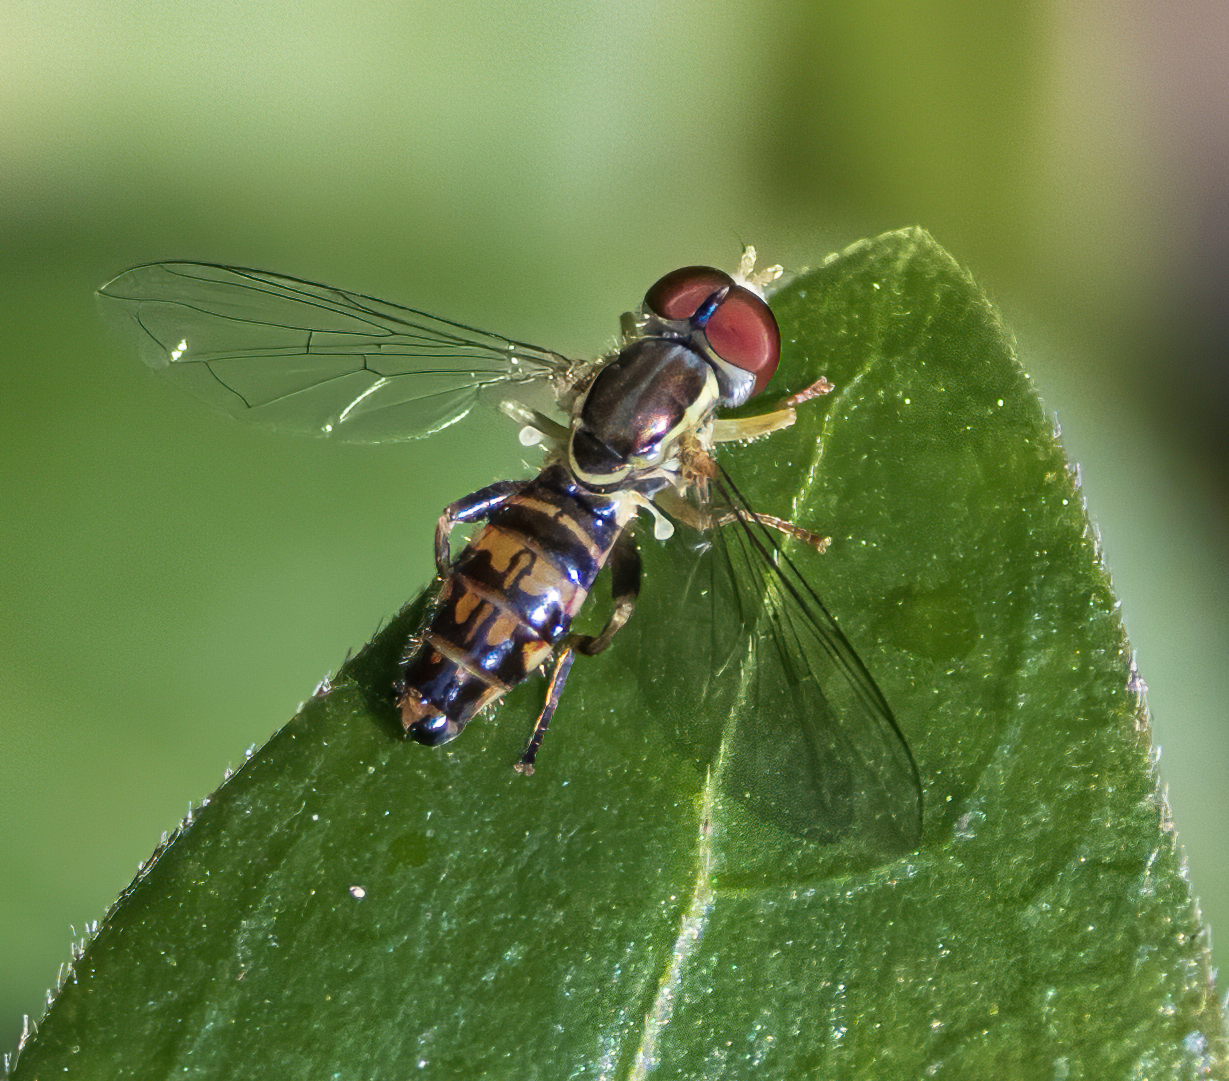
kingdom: Animalia
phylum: Arthropoda
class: Insecta
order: Diptera
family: Syrphidae
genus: Toxomerus
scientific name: Toxomerus geminatus
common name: Eastern calligrapher
